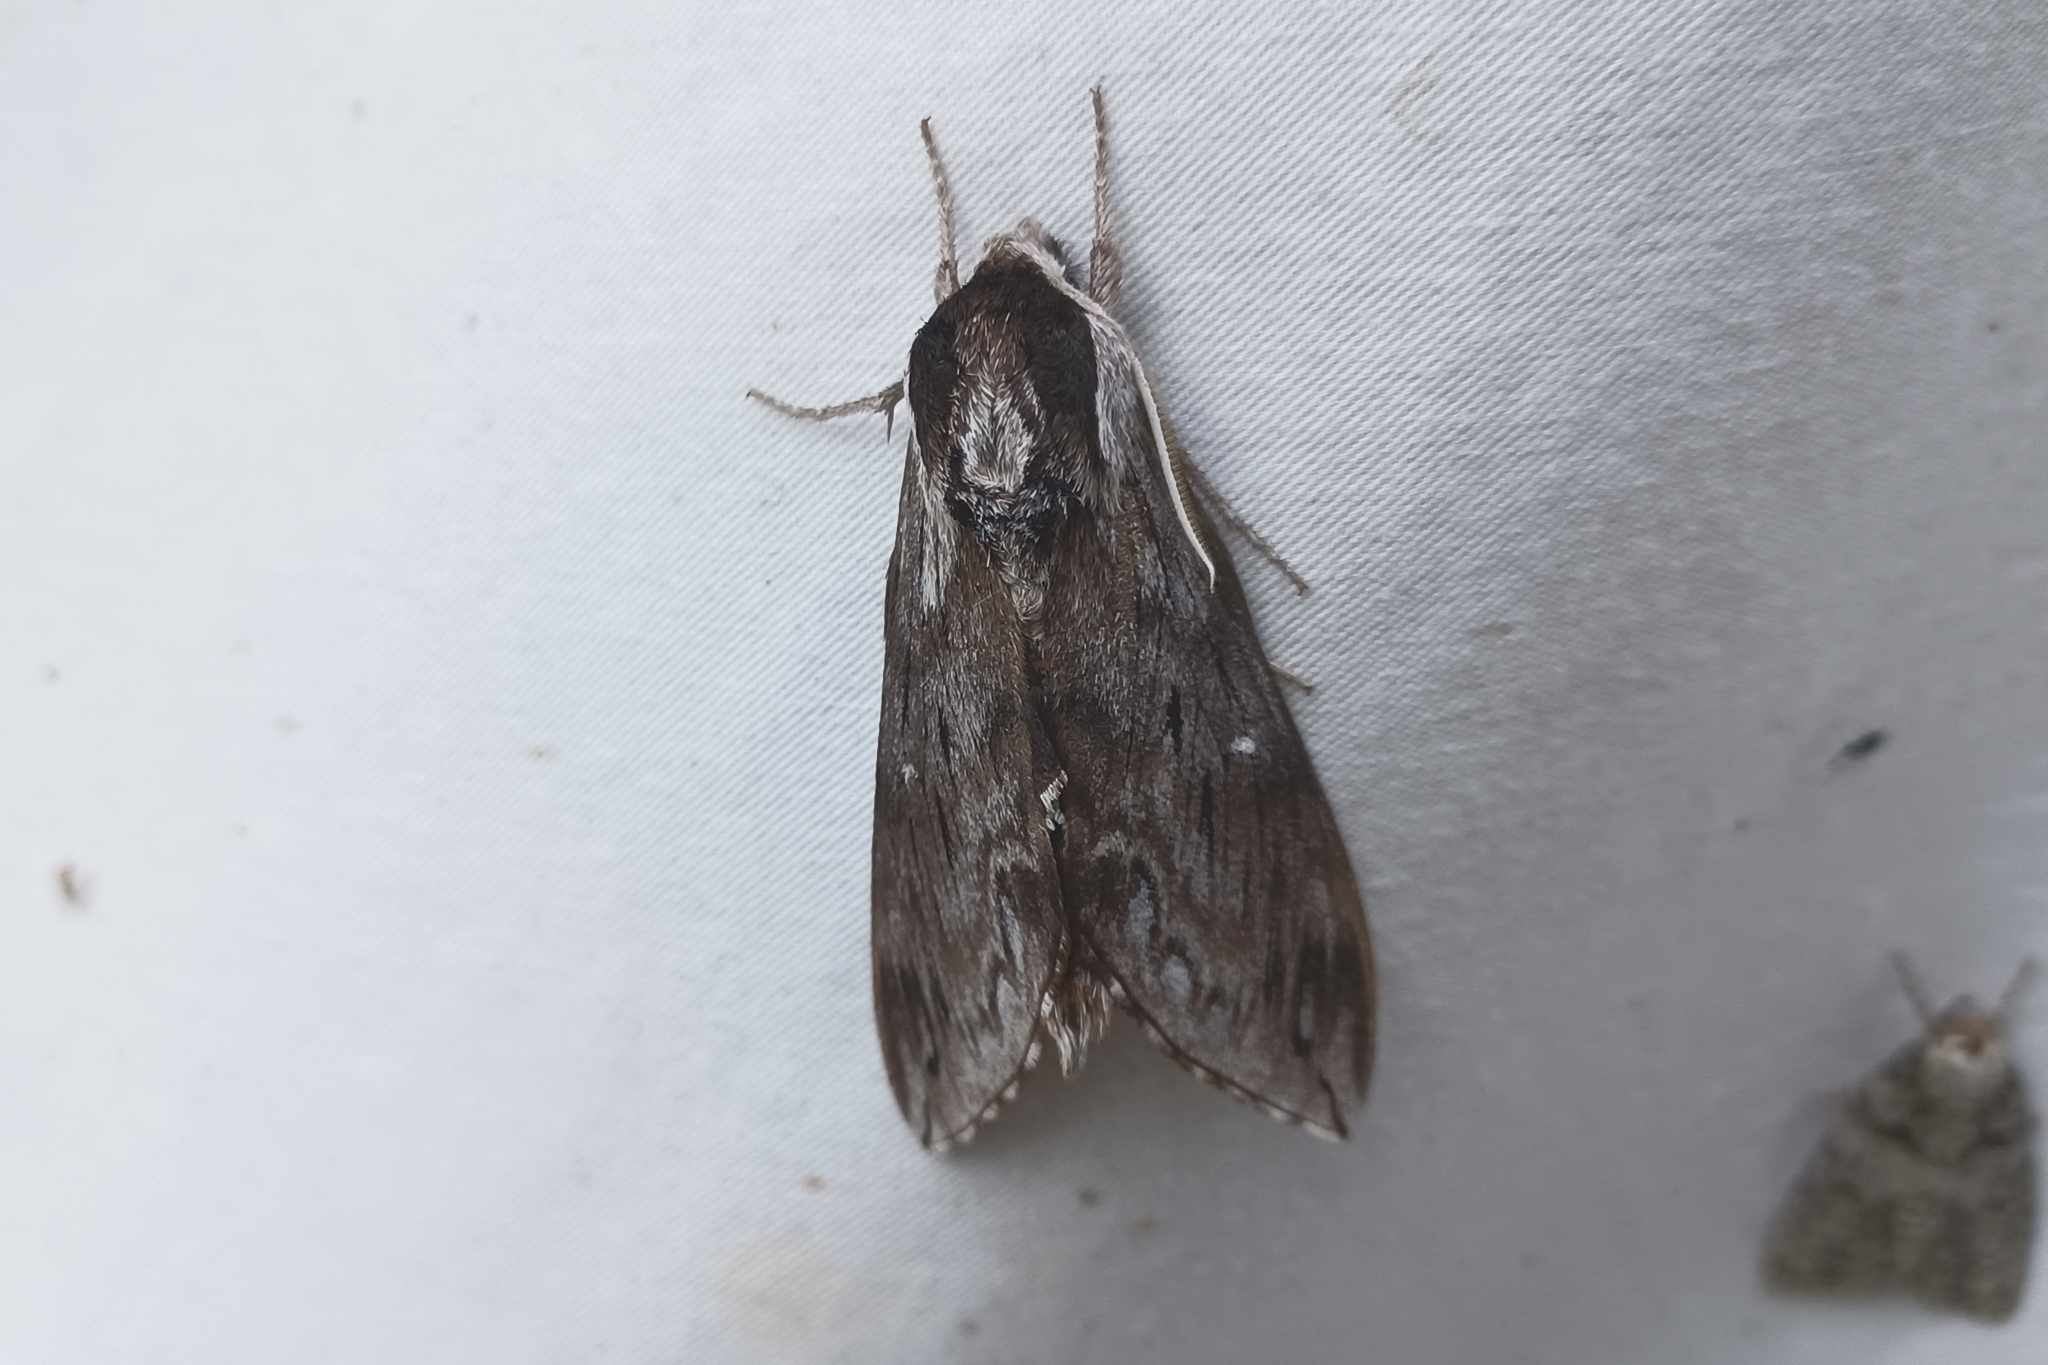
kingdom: Animalia
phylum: Arthropoda
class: Insecta
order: Lepidoptera
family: Sphingidae
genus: Sphinx
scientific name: Sphinx poecila
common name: Northern apple sphinx
